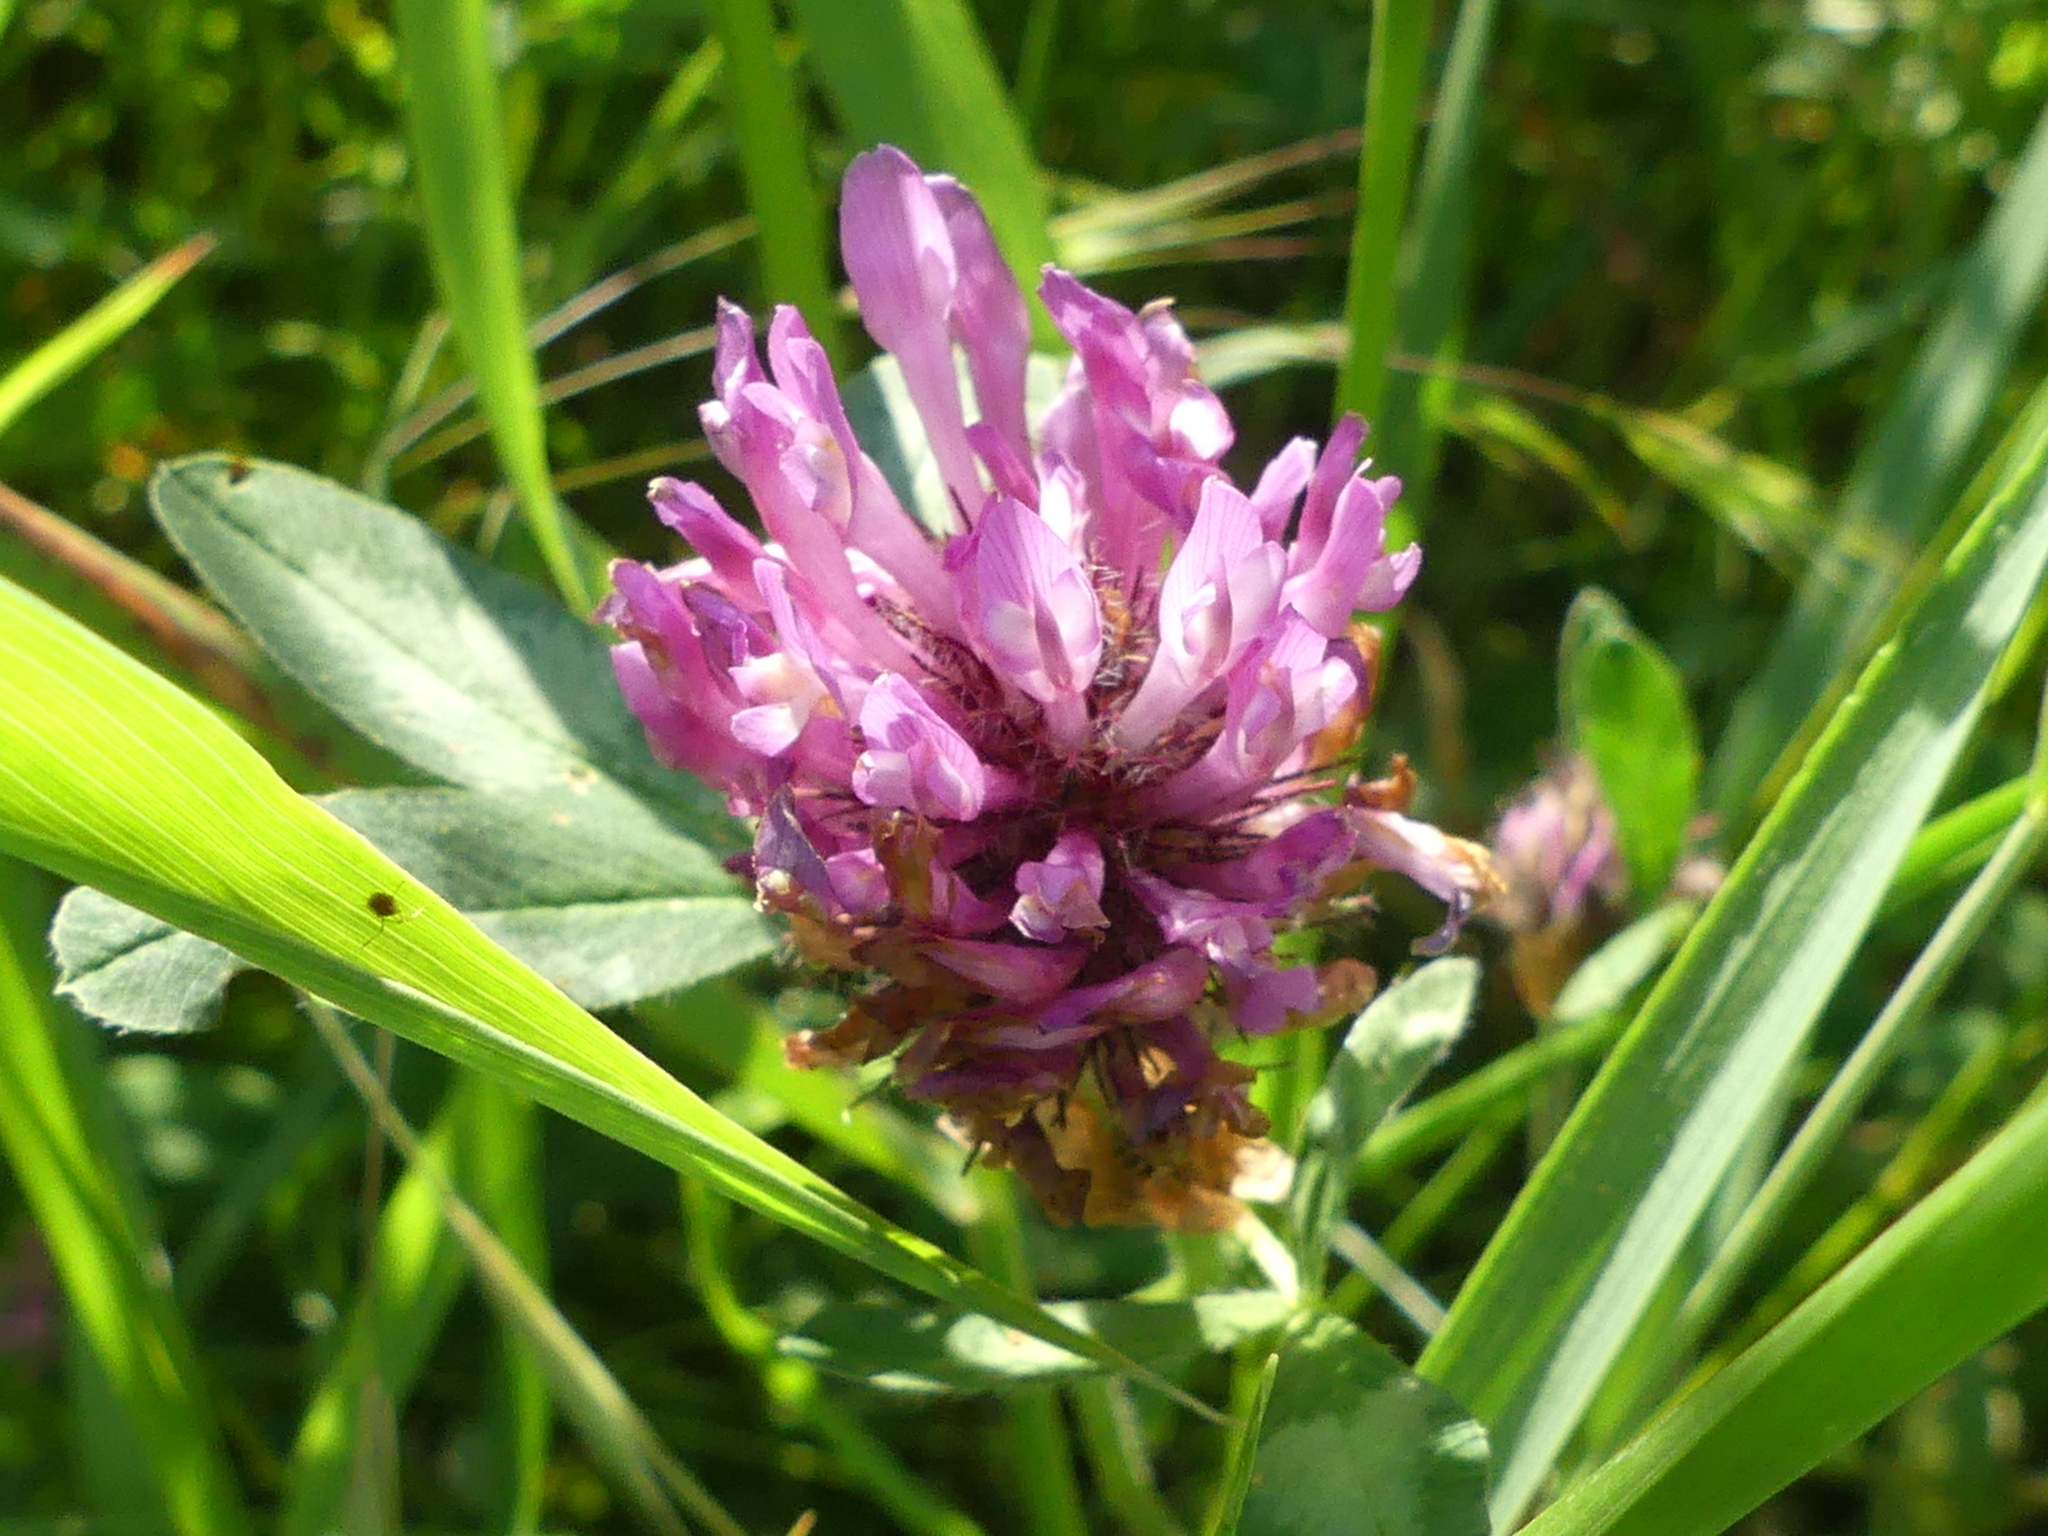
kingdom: Plantae
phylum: Tracheophyta
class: Magnoliopsida
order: Fabales
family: Fabaceae
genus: Trifolium
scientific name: Trifolium pratense
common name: Red clover
